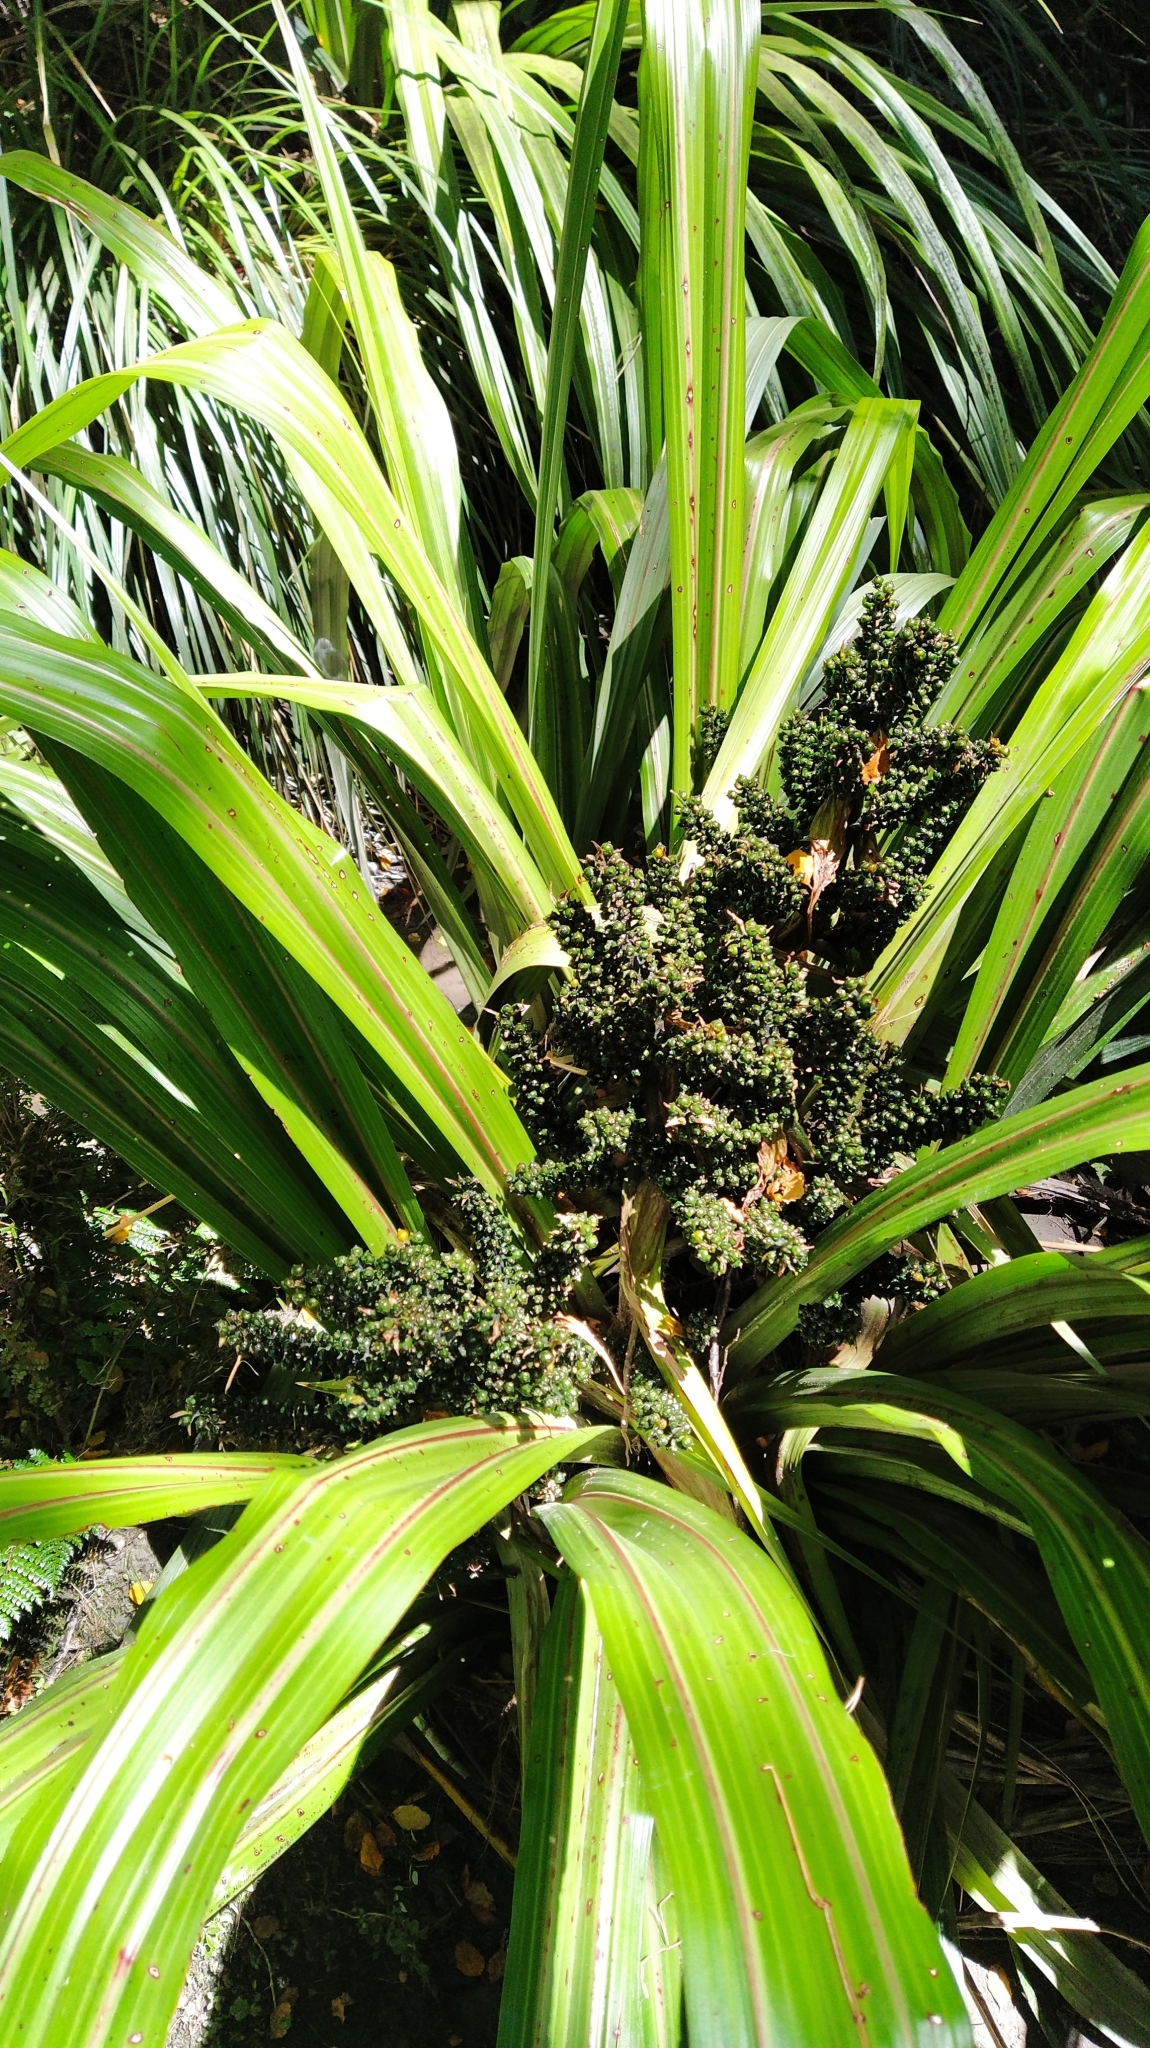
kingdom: Plantae
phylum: Tracheophyta
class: Liliopsida
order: Asparagales
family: Asteliaceae
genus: Astelia
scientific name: Astelia fragrans
